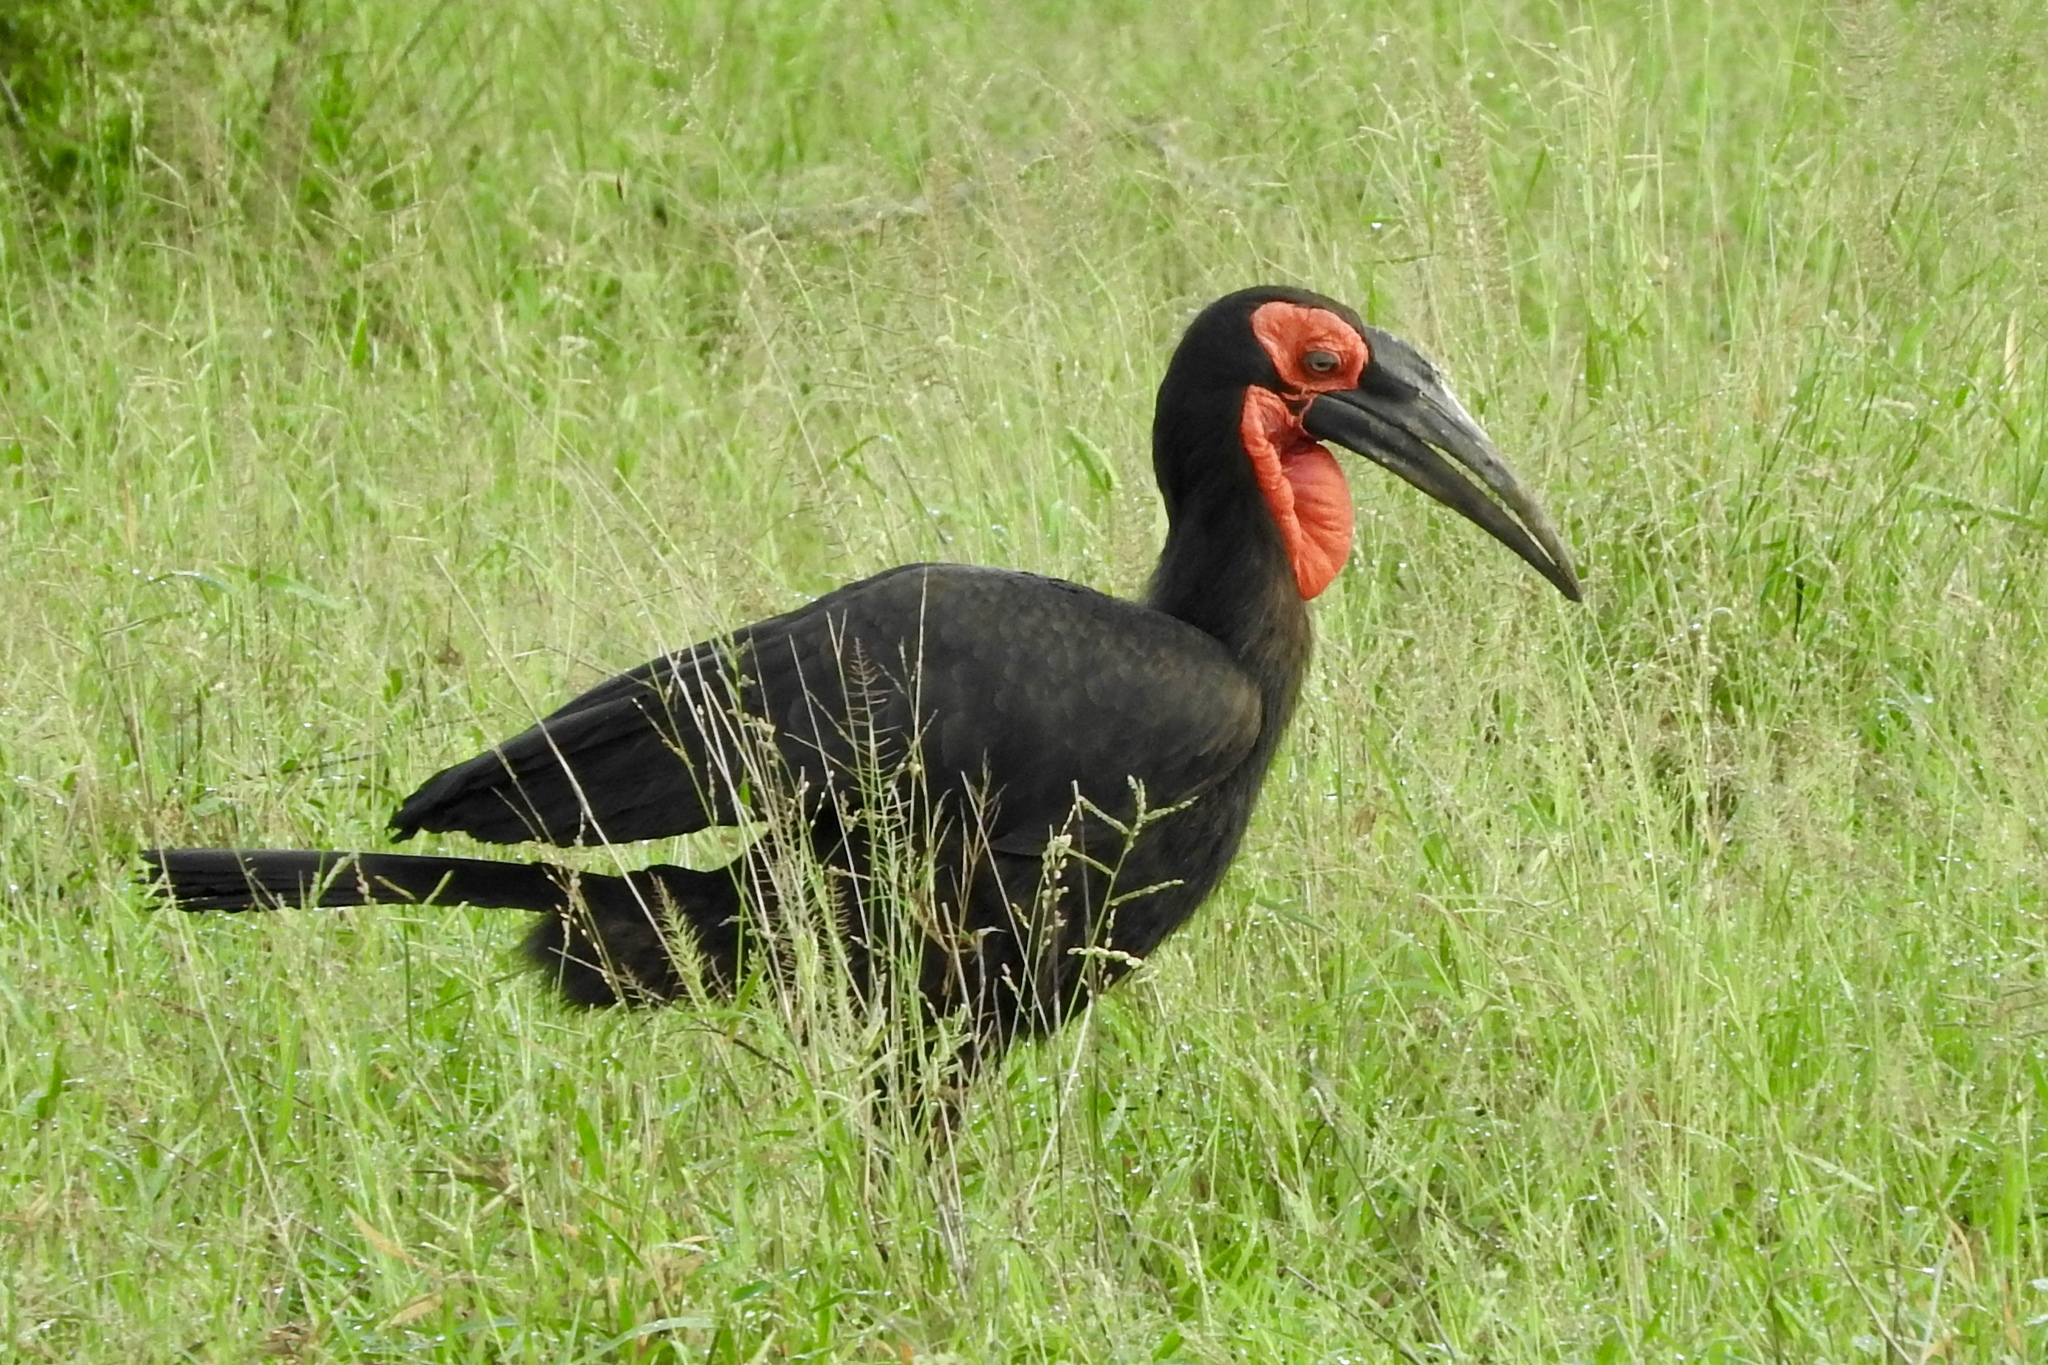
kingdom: Animalia
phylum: Chordata
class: Aves
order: Bucerotiformes
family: Bucorvidae
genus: Bucorvus
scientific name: Bucorvus leadbeateri
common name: Southern ground-hornbill
